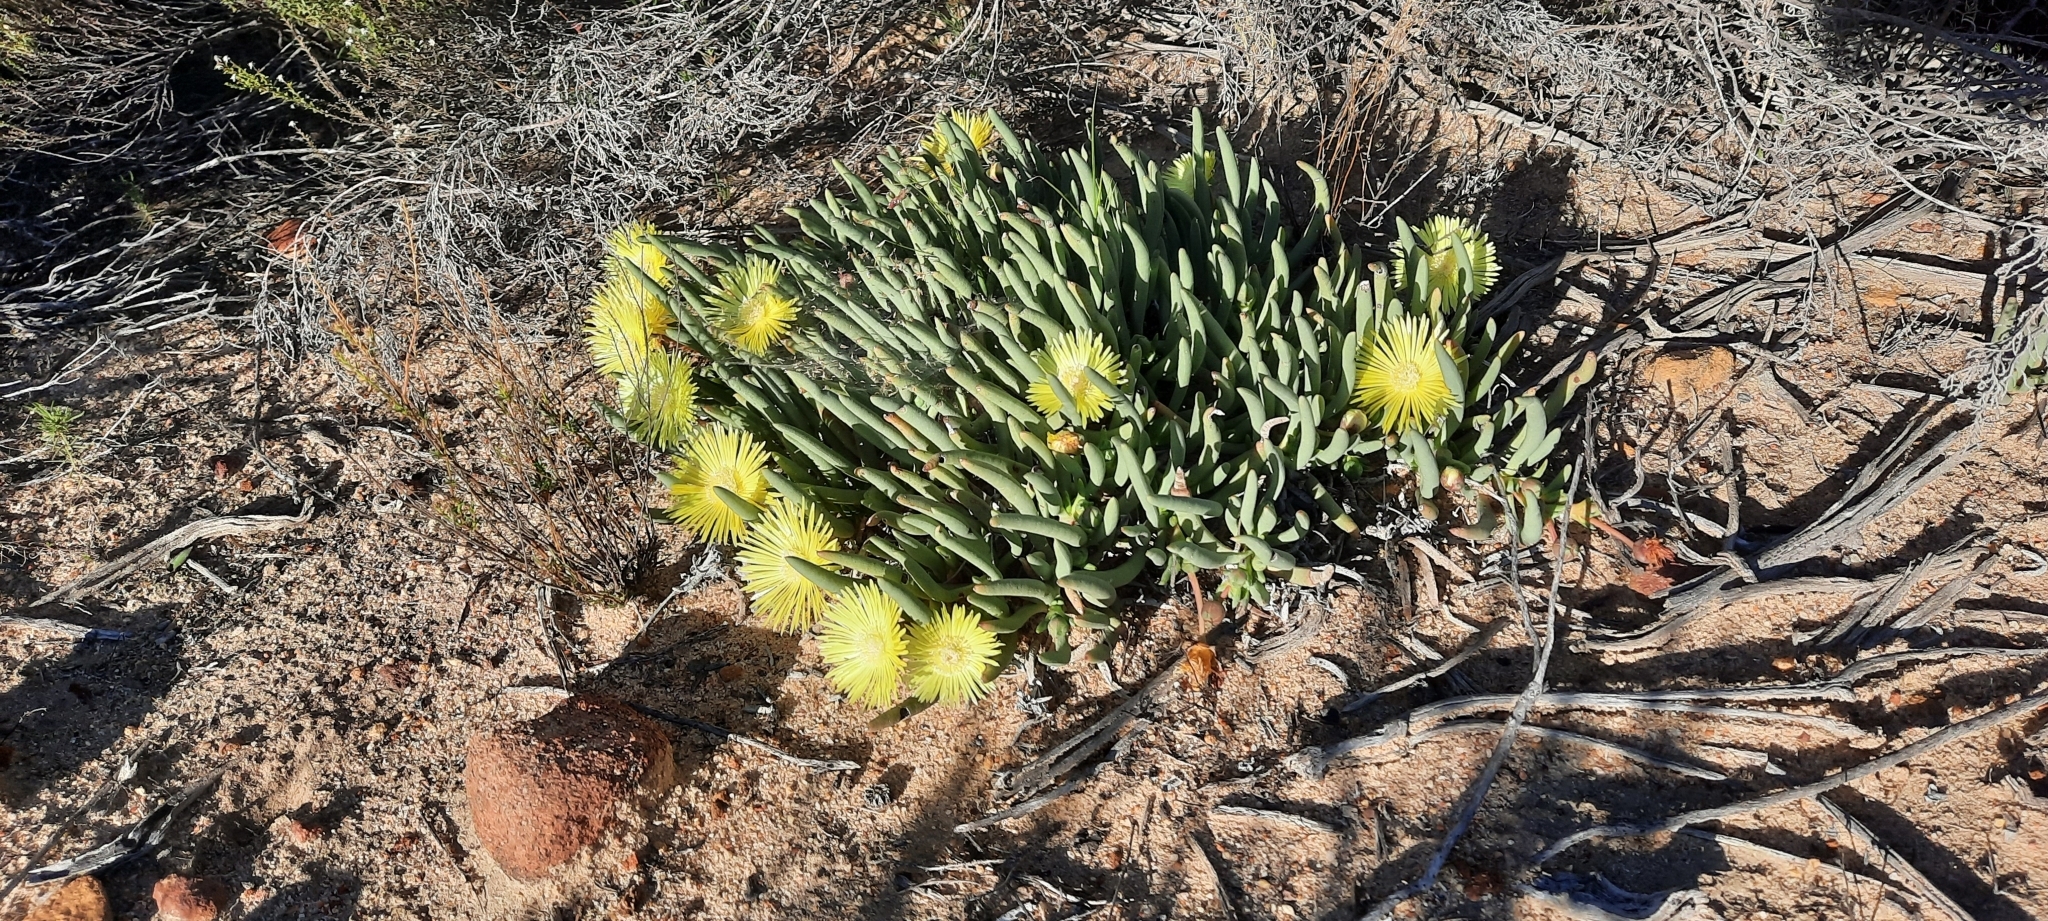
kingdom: Plantae
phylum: Tracheophyta
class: Magnoliopsida
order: Caryophyllales
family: Aizoaceae
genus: Cephalophyllum
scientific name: Cephalophyllum loreum
